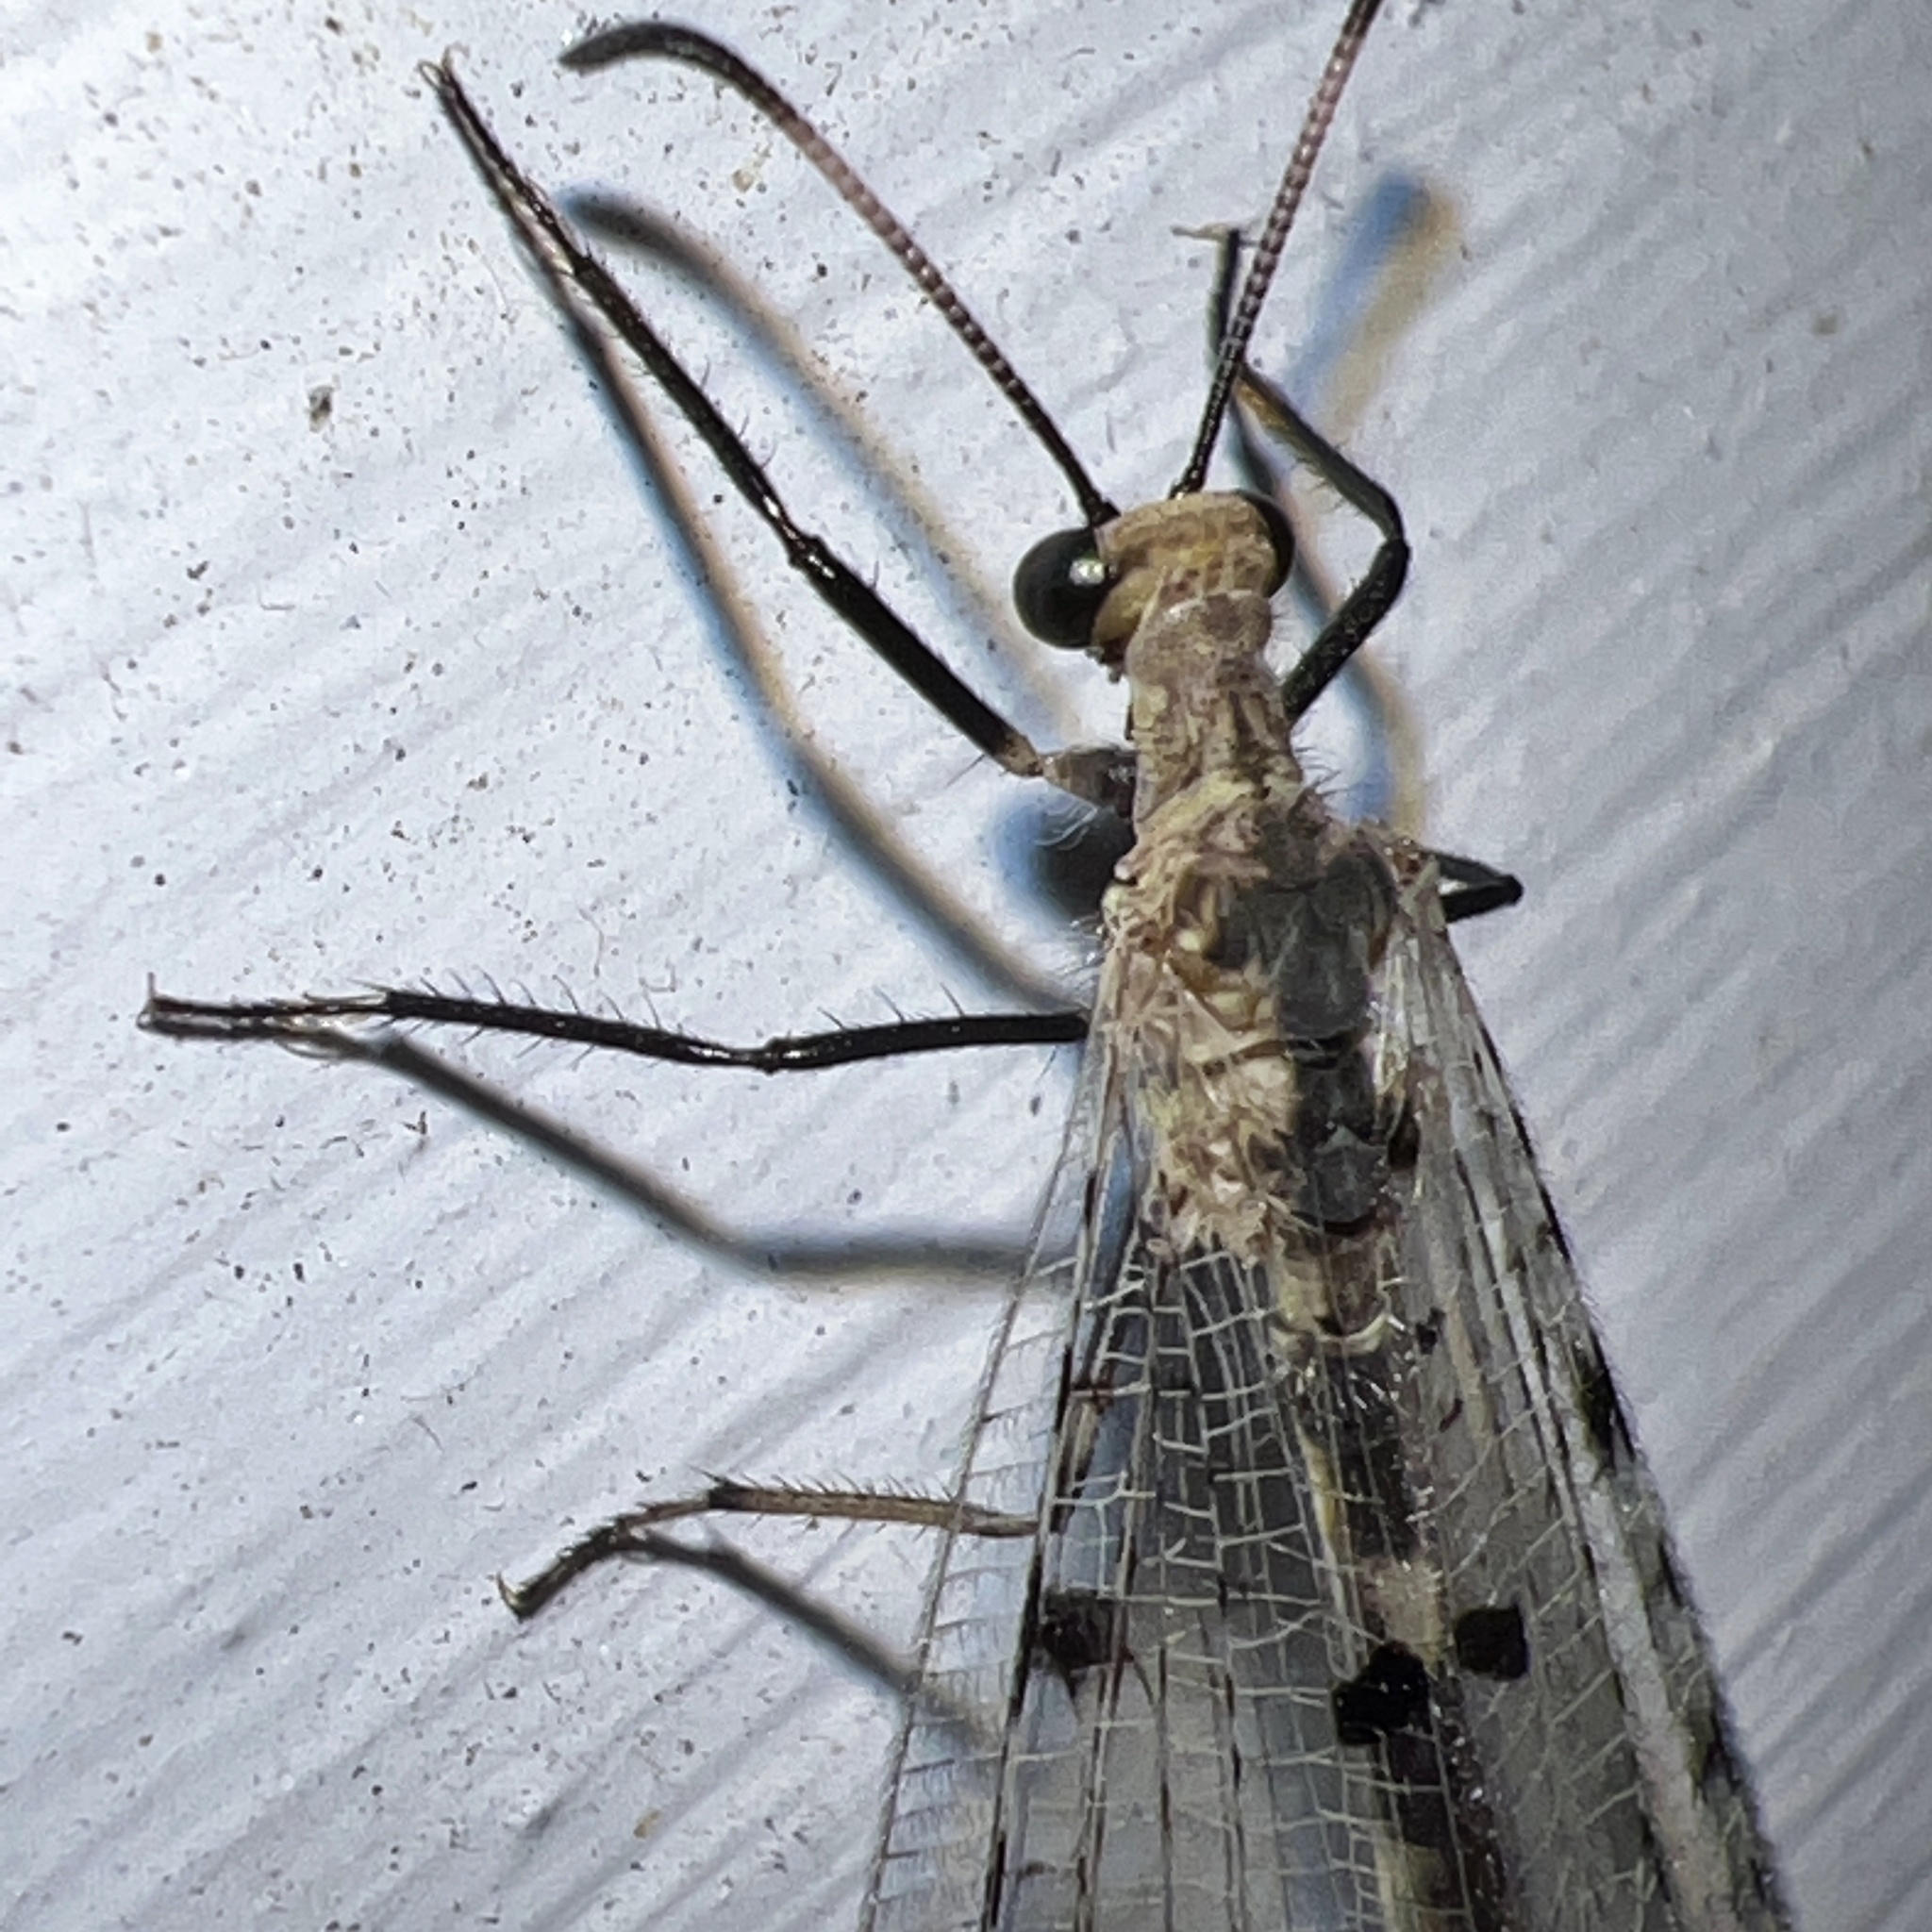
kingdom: Animalia
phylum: Arthropoda
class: Insecta
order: Neuroptera
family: Myrmeleontidae
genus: Dendroleon
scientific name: Dendroleon obsoletus
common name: Eastern spotted-winged antlion
